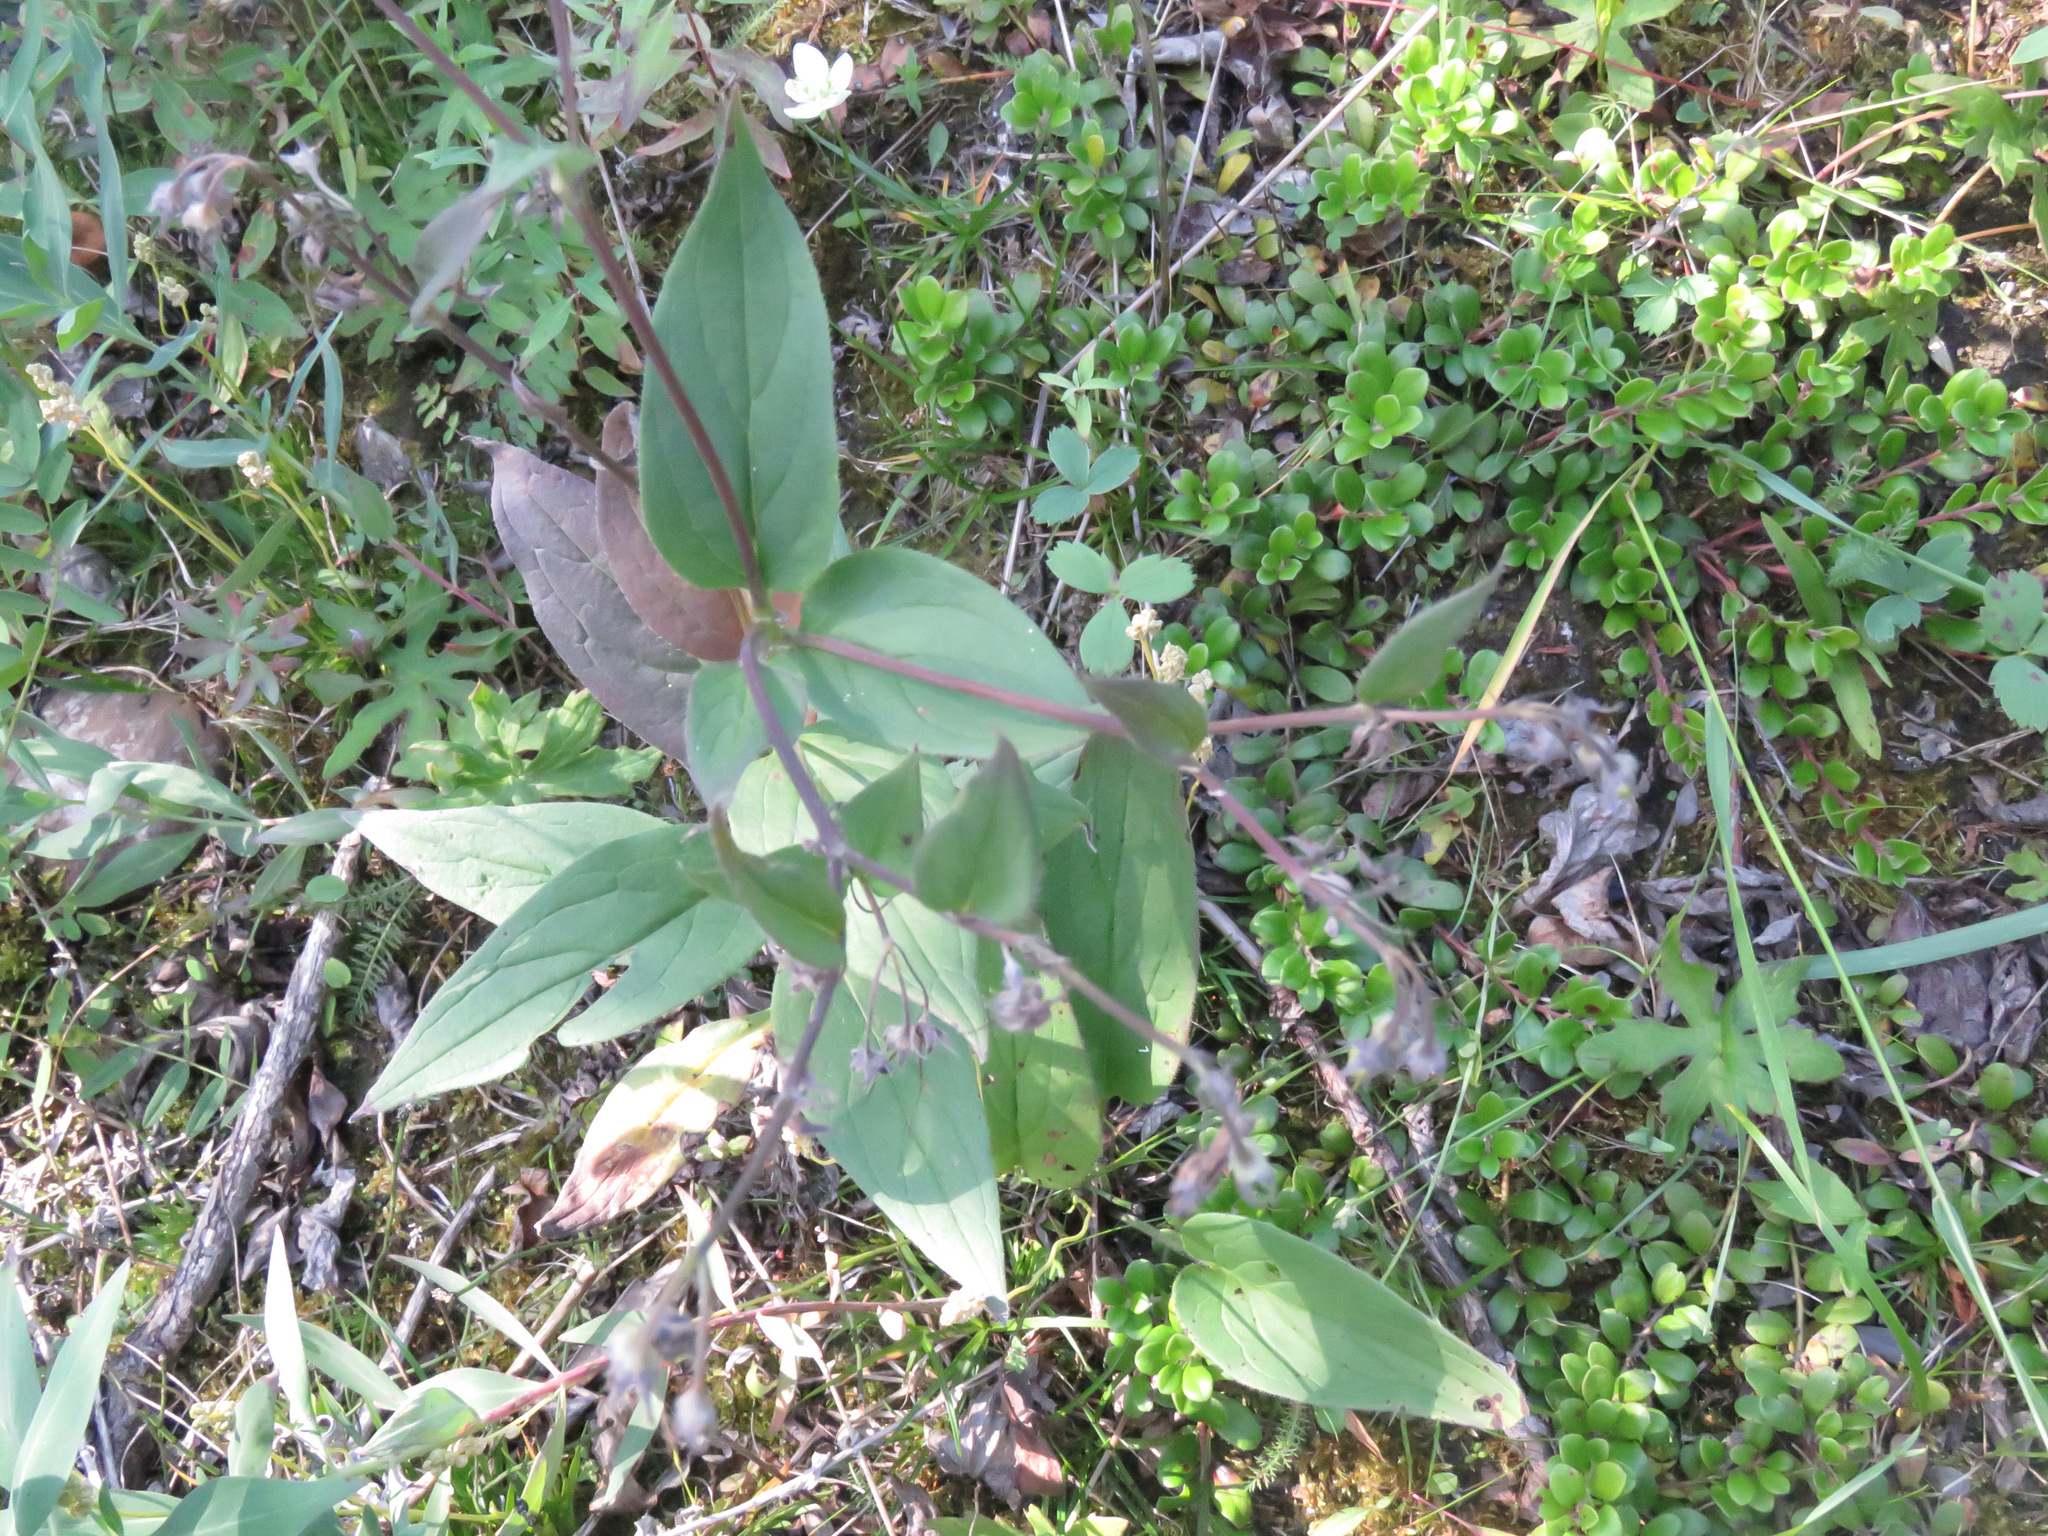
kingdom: Plantae
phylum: Tracheophyta
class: Magnoliopsida
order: Boraginales
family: Boraginaceae
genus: Mertensia
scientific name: Mertensia paniculata
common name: Panicled bluebells
